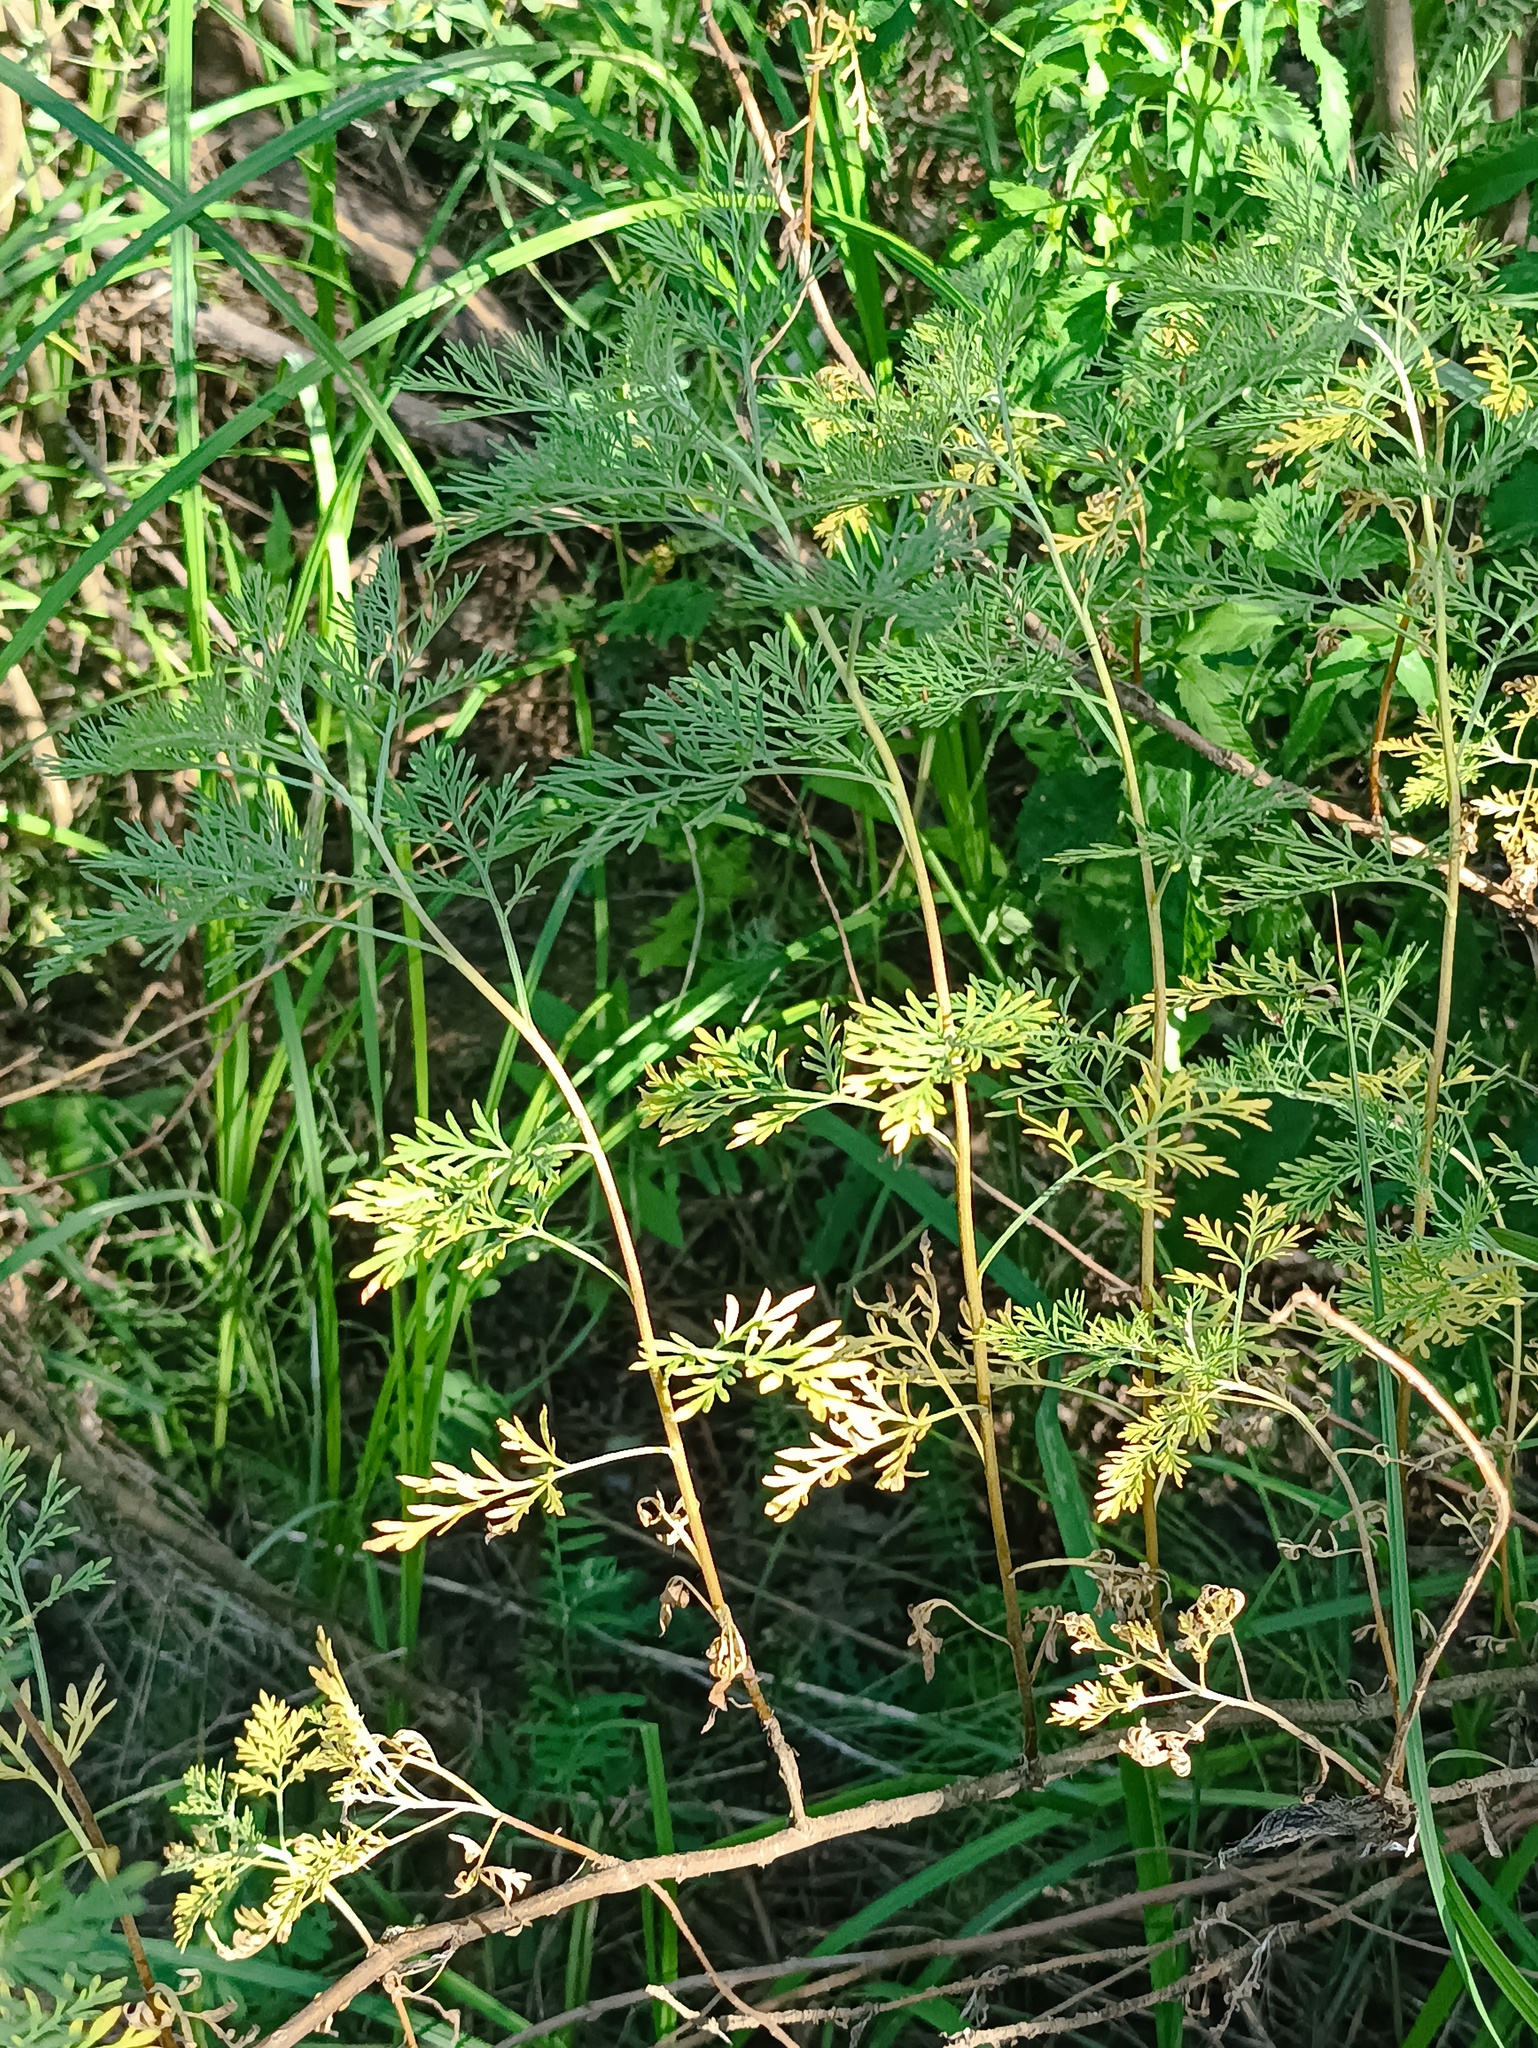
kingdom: Plantae
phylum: Tracheophyta
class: Magnoliopsida
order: Asterales
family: Asteraceae
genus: Artemisia
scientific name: Artemisia abrotanum
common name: Southernwood
